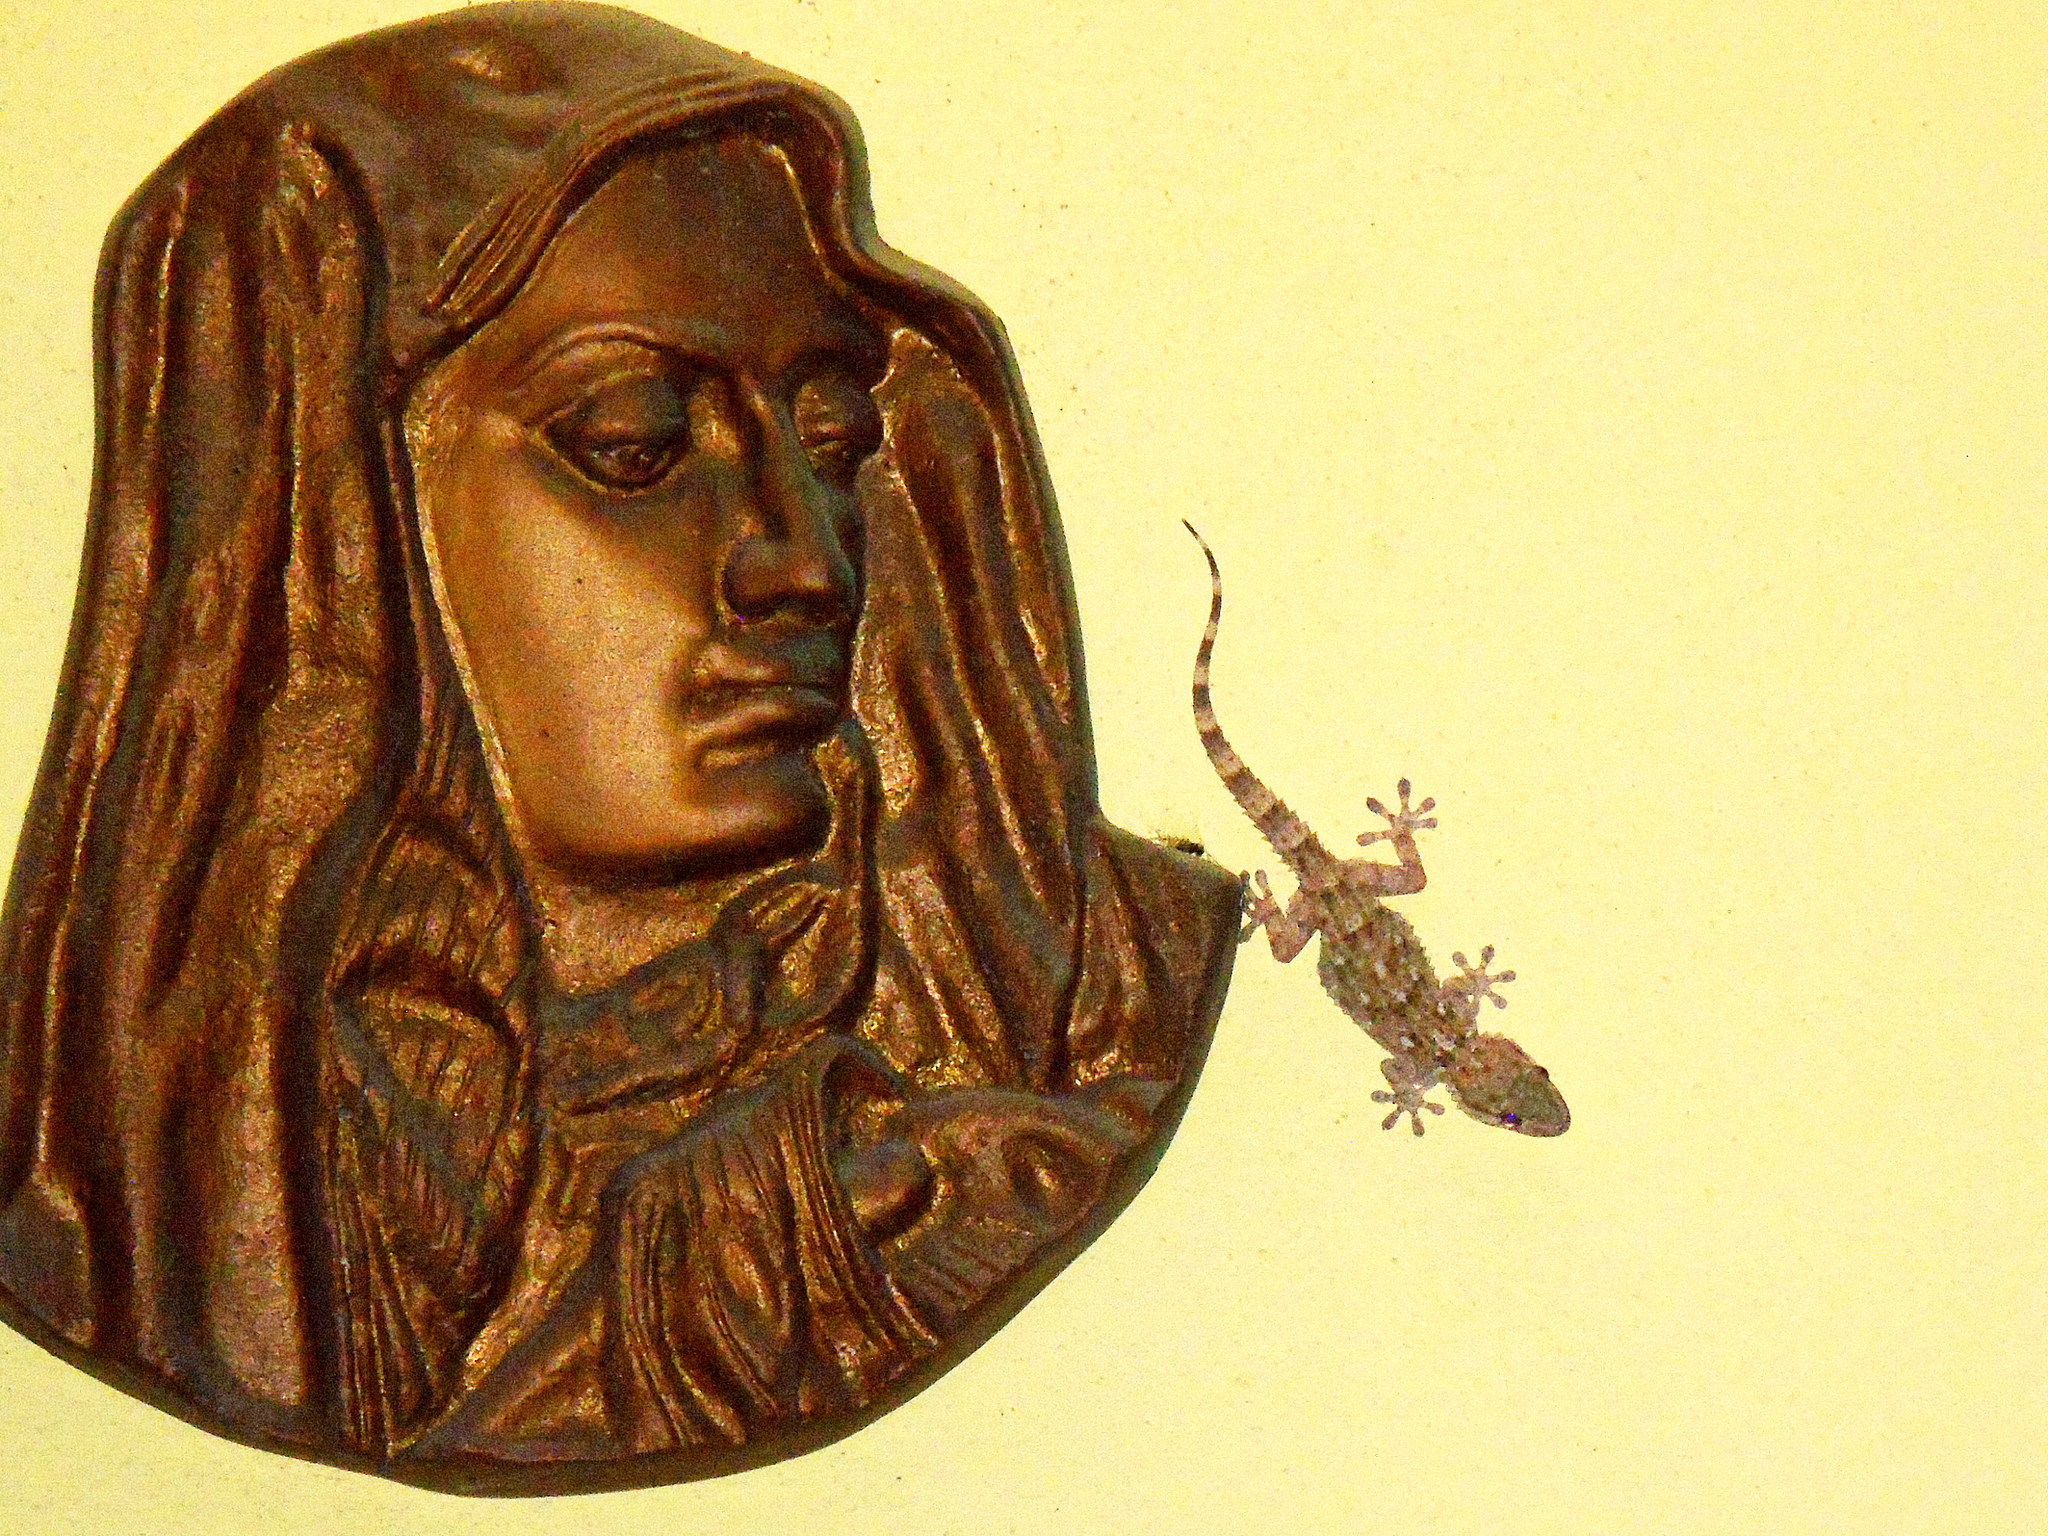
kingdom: Animalia
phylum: Chordata
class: Squamata
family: Phyllodactylidae
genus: Tarentola
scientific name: Tarentola mauritanica
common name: Moorish gecko
